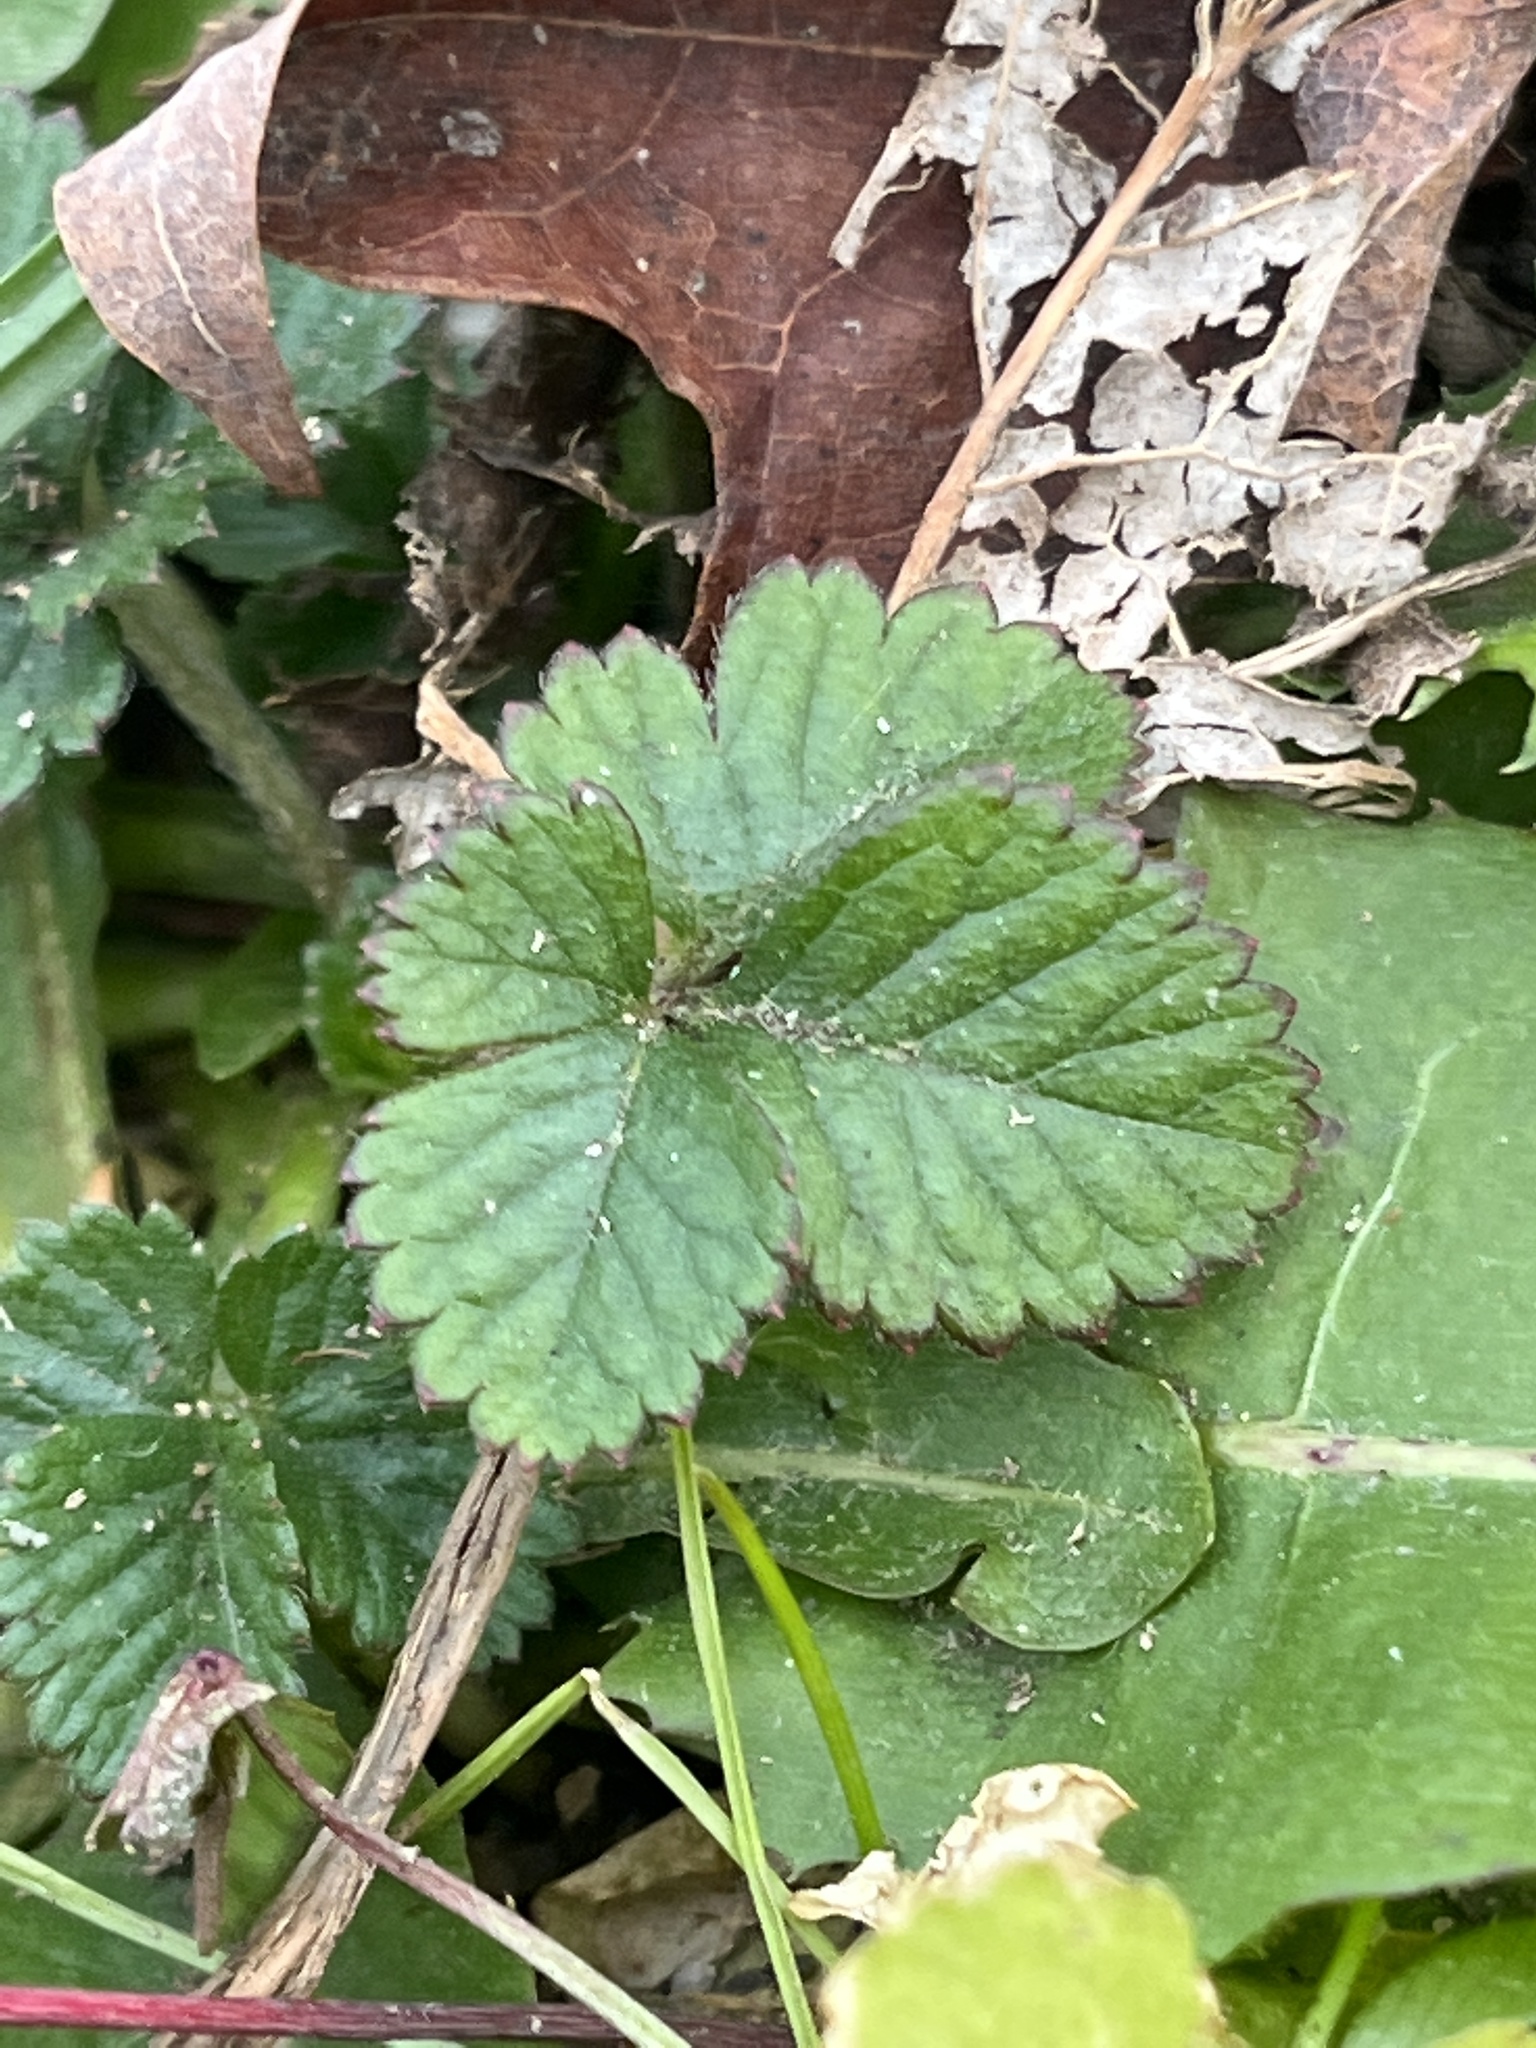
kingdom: Plantae
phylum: Tracheophyta
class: Magnoliopsida
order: Rosales
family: Rosaceae
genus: Potentilla
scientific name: Potentilla indica
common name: Yellow-flowered strawberry
